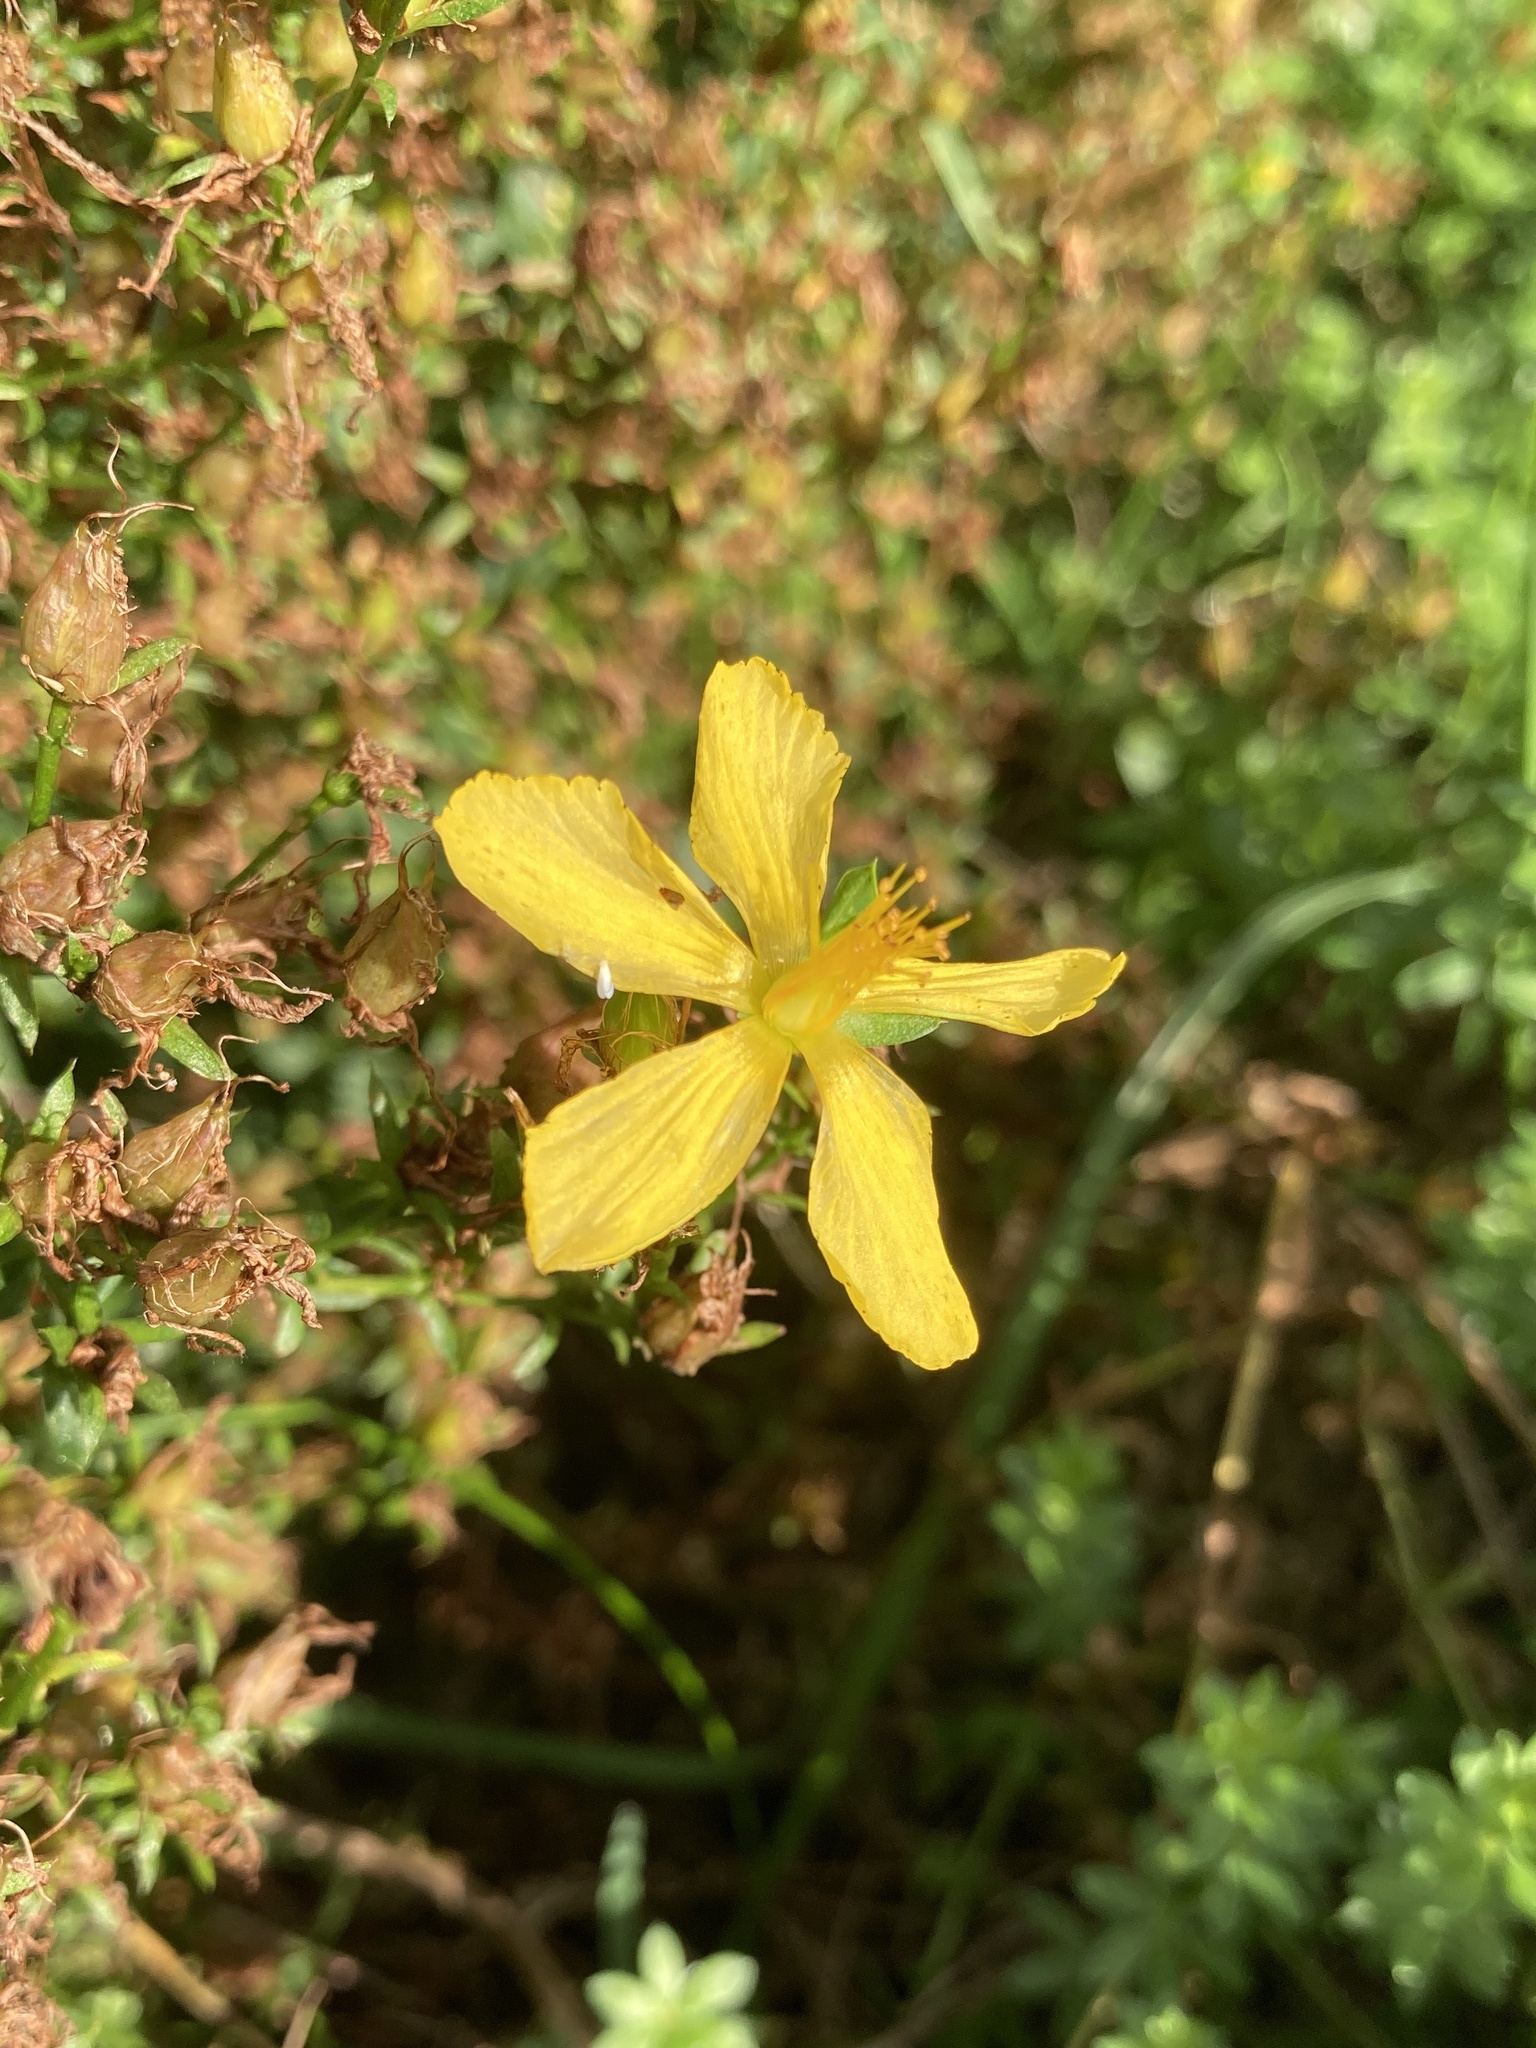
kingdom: Plantae
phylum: Tracheophyta
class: Magnoliopsida
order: Malpighiales
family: Hypericaceae
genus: Hypericum
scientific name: Hypericum perforatum
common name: Common st. johnswort
